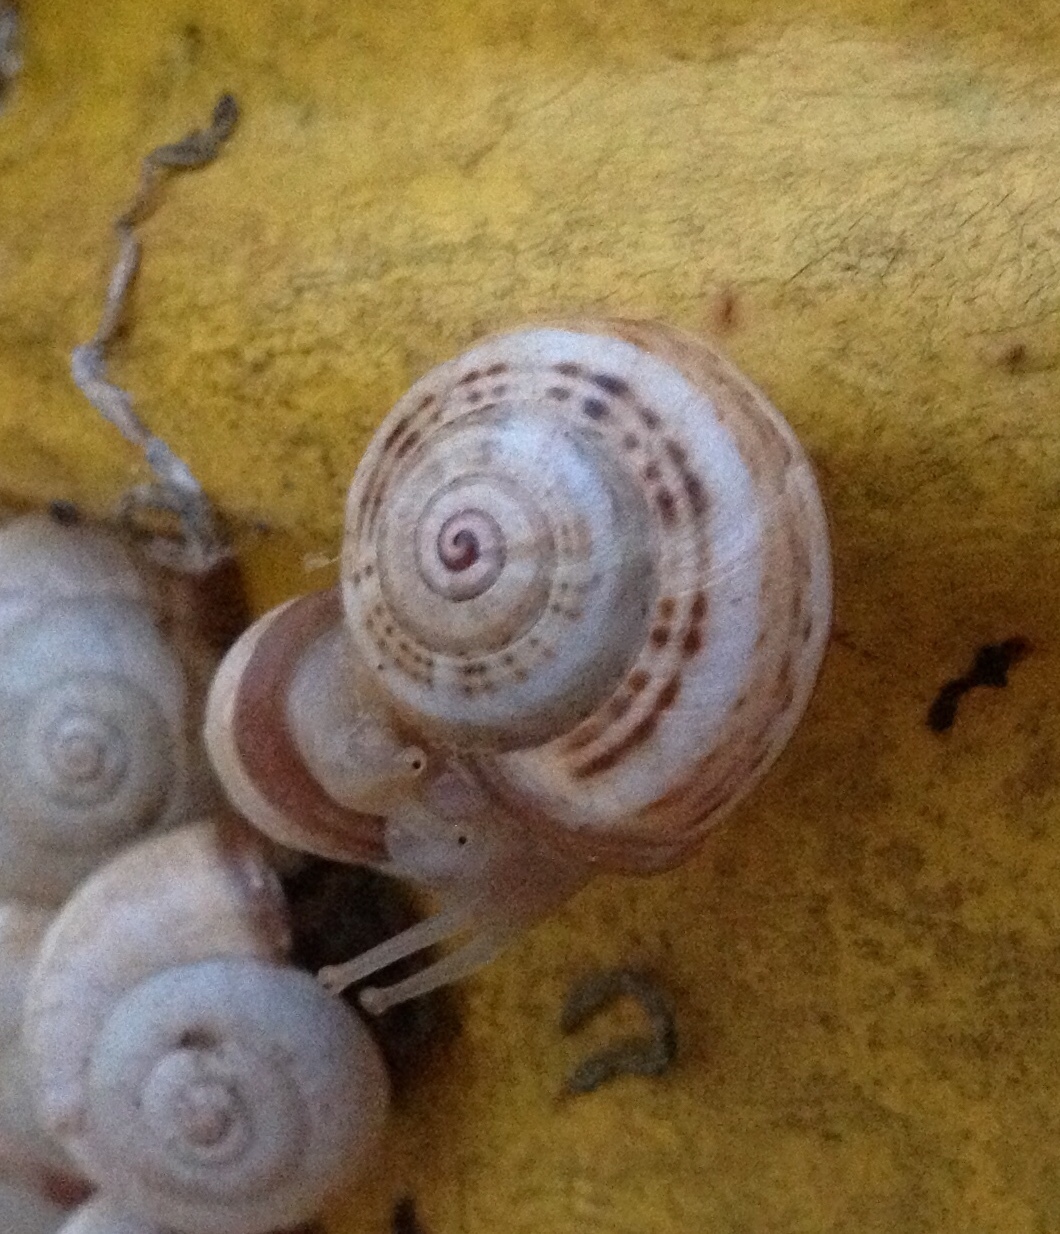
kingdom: Animalia
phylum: Mollusca
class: Gastropoda
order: Stylommatophora
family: Helicidae
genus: Theba
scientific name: Theba pisana
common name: White snail
